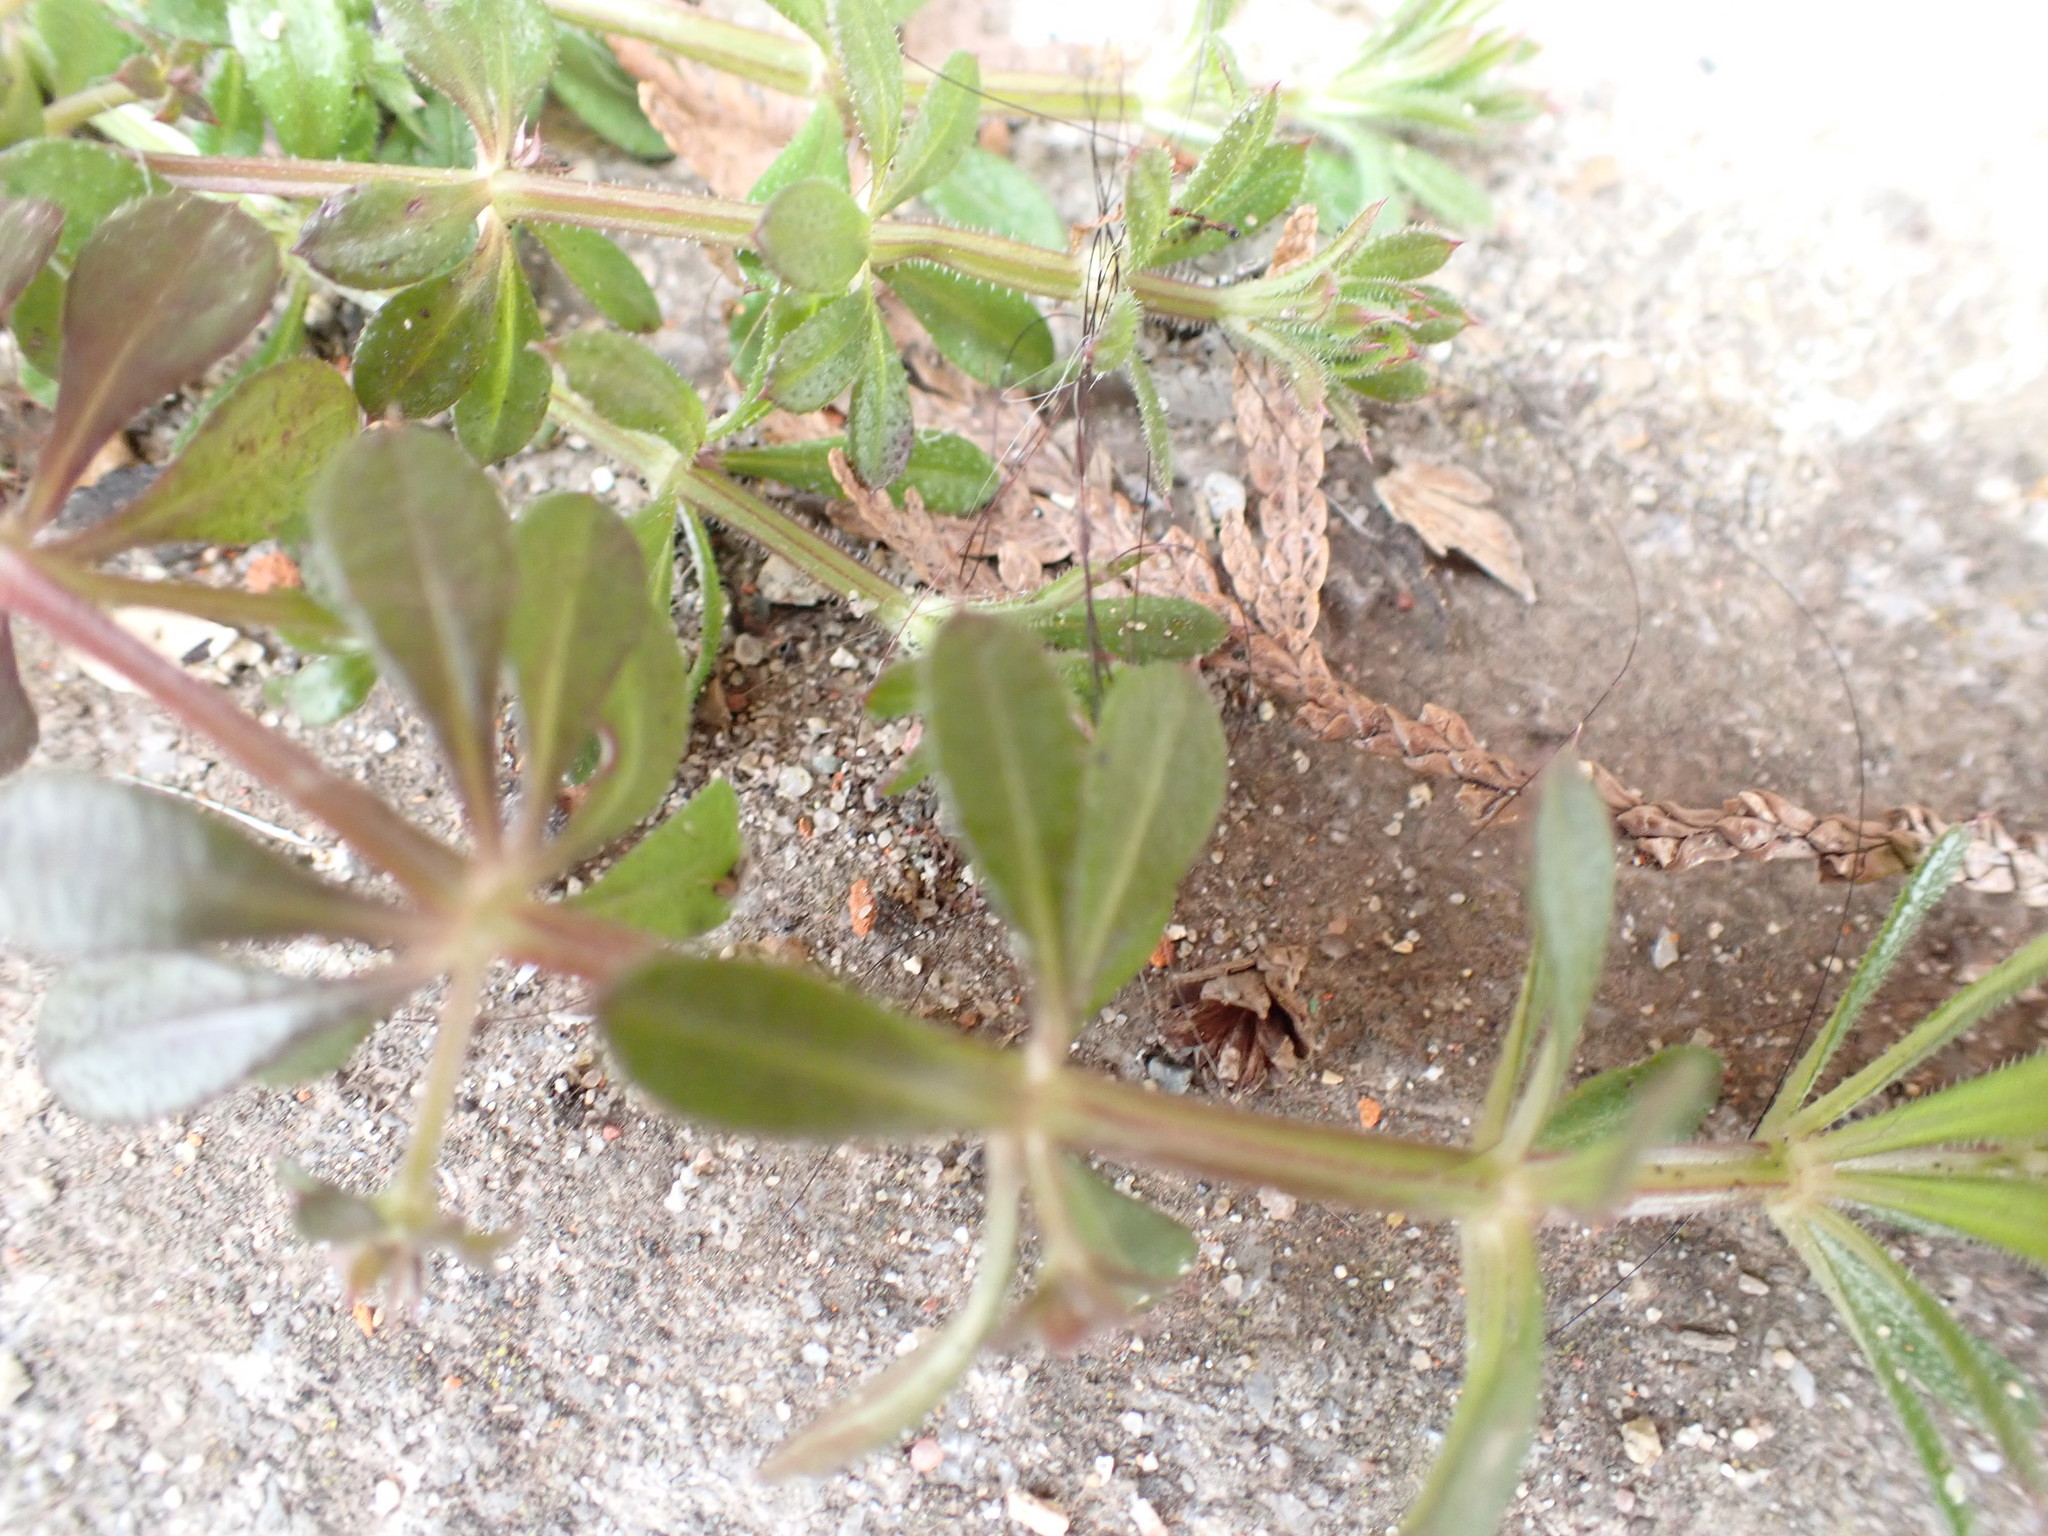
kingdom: Plantae
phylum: Tracheophyta
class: Magnoliopsida
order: Gentianales
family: Rubiaceae
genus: Galium
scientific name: Galium aparine
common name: Cleavers
